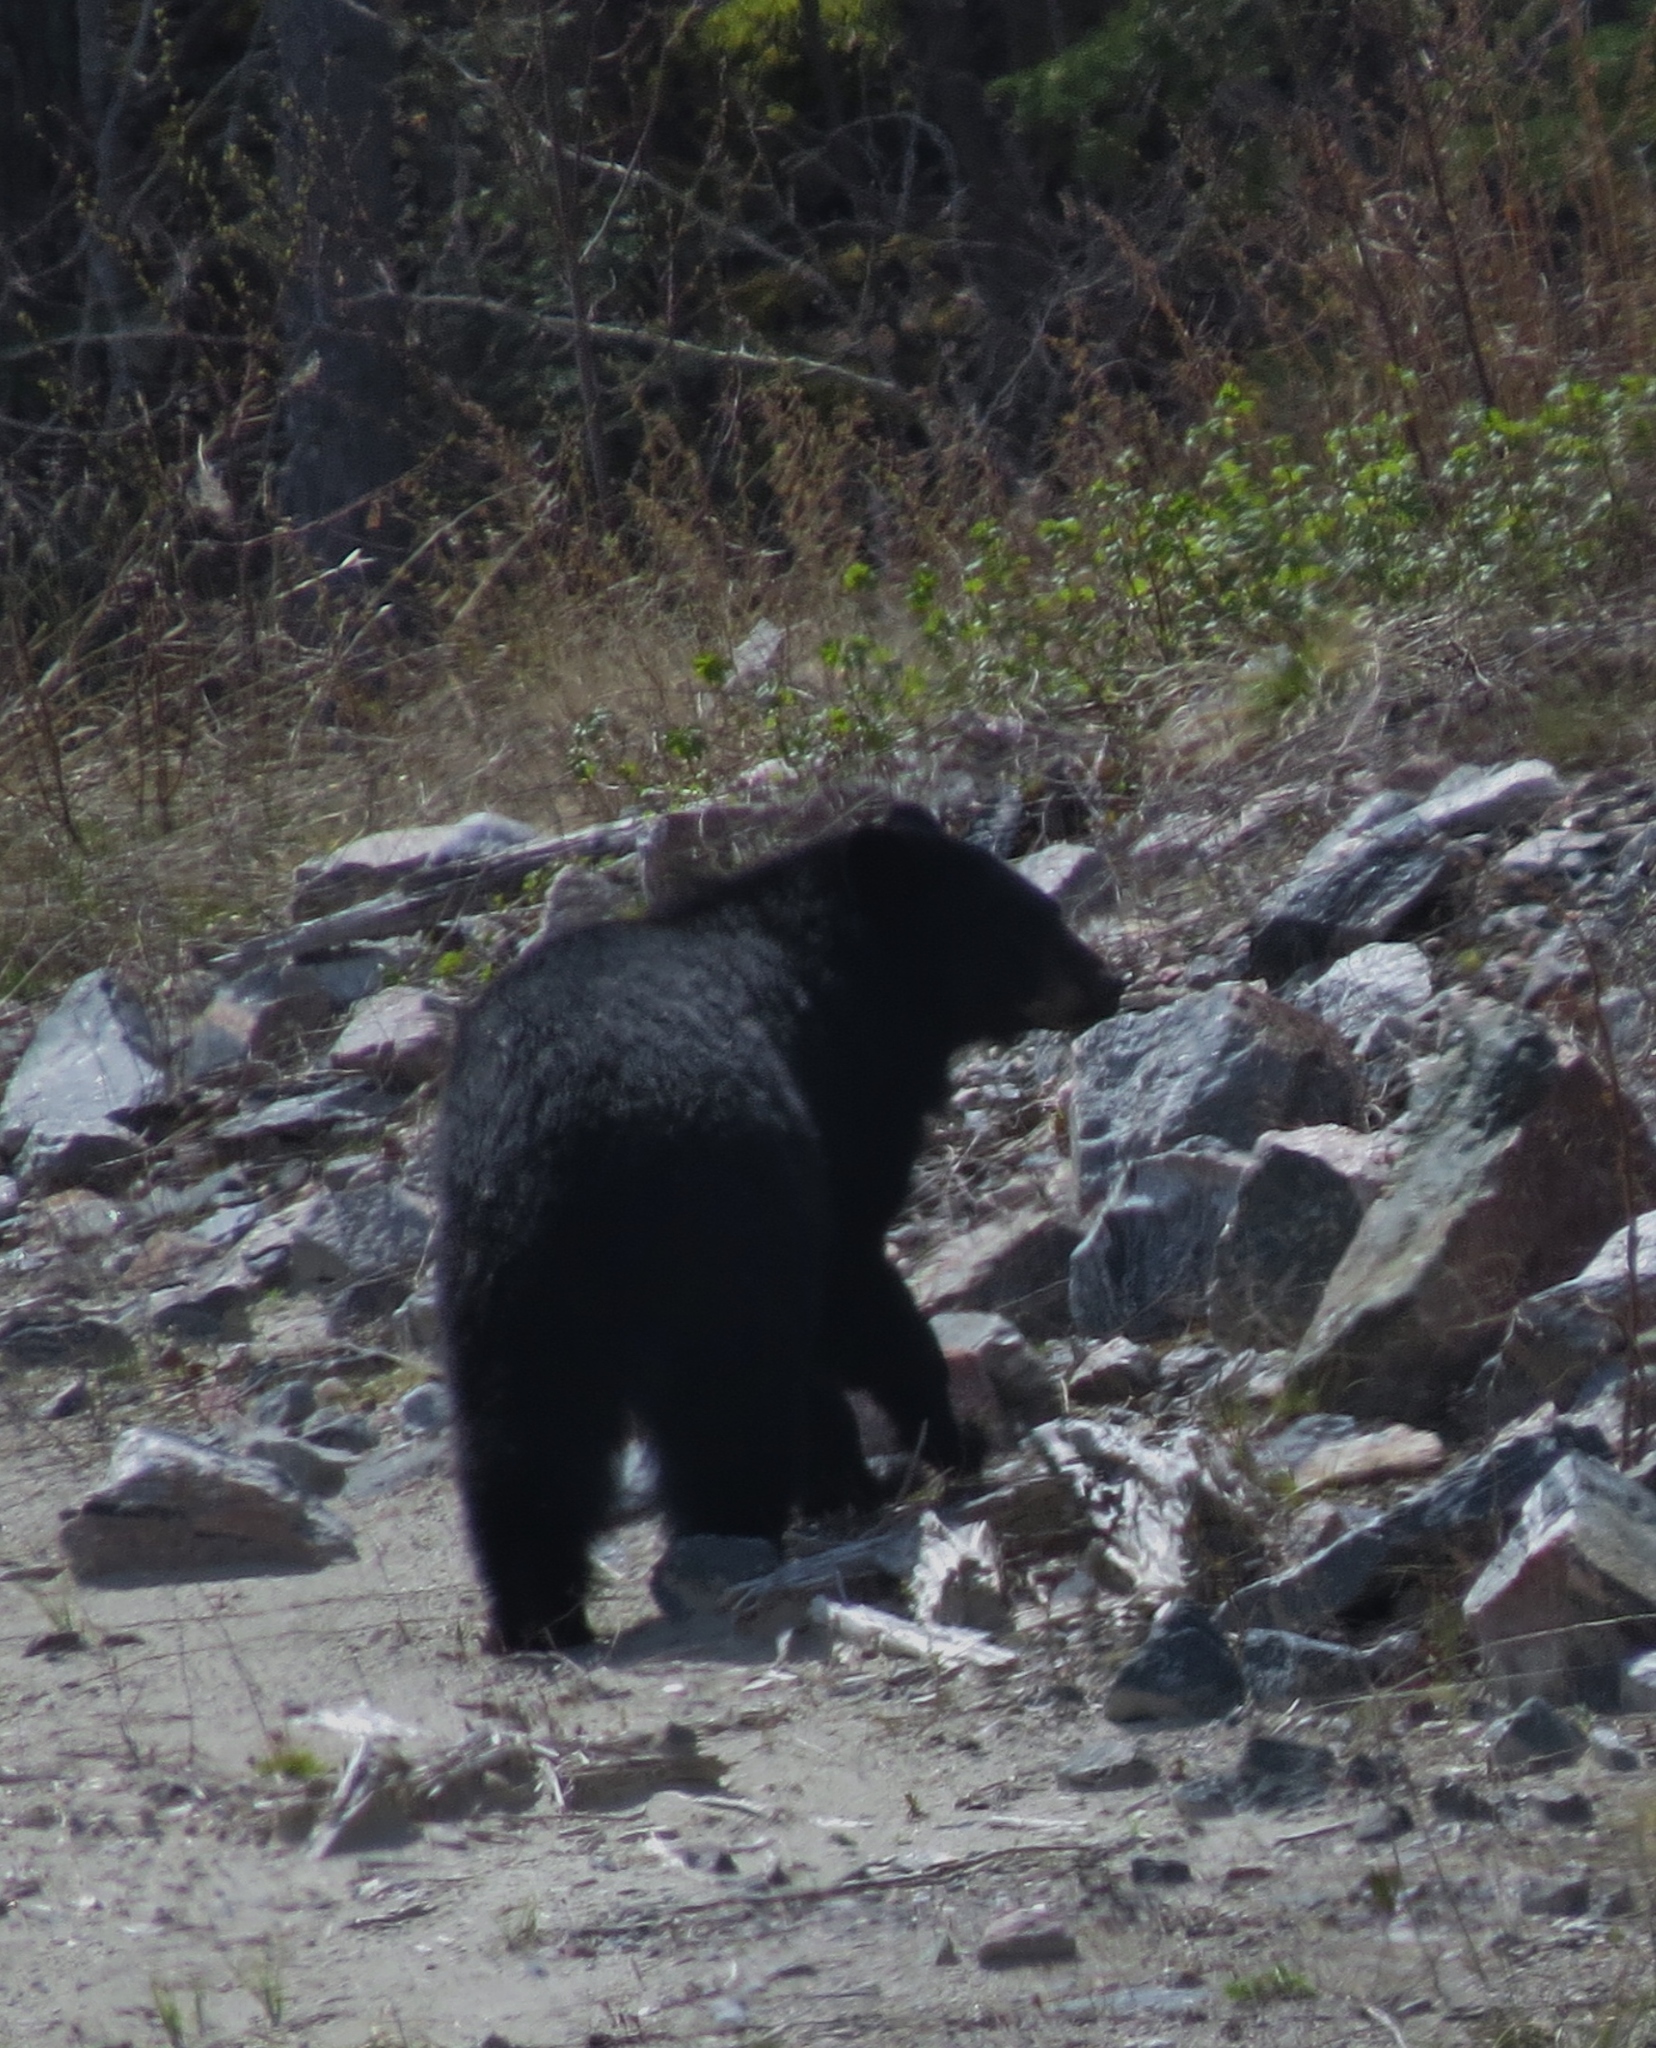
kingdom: Animalia
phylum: Chordata
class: Mammalia
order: Carnivora
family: Ursidae
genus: Ursus
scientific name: Ursus americanus
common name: American black bear
